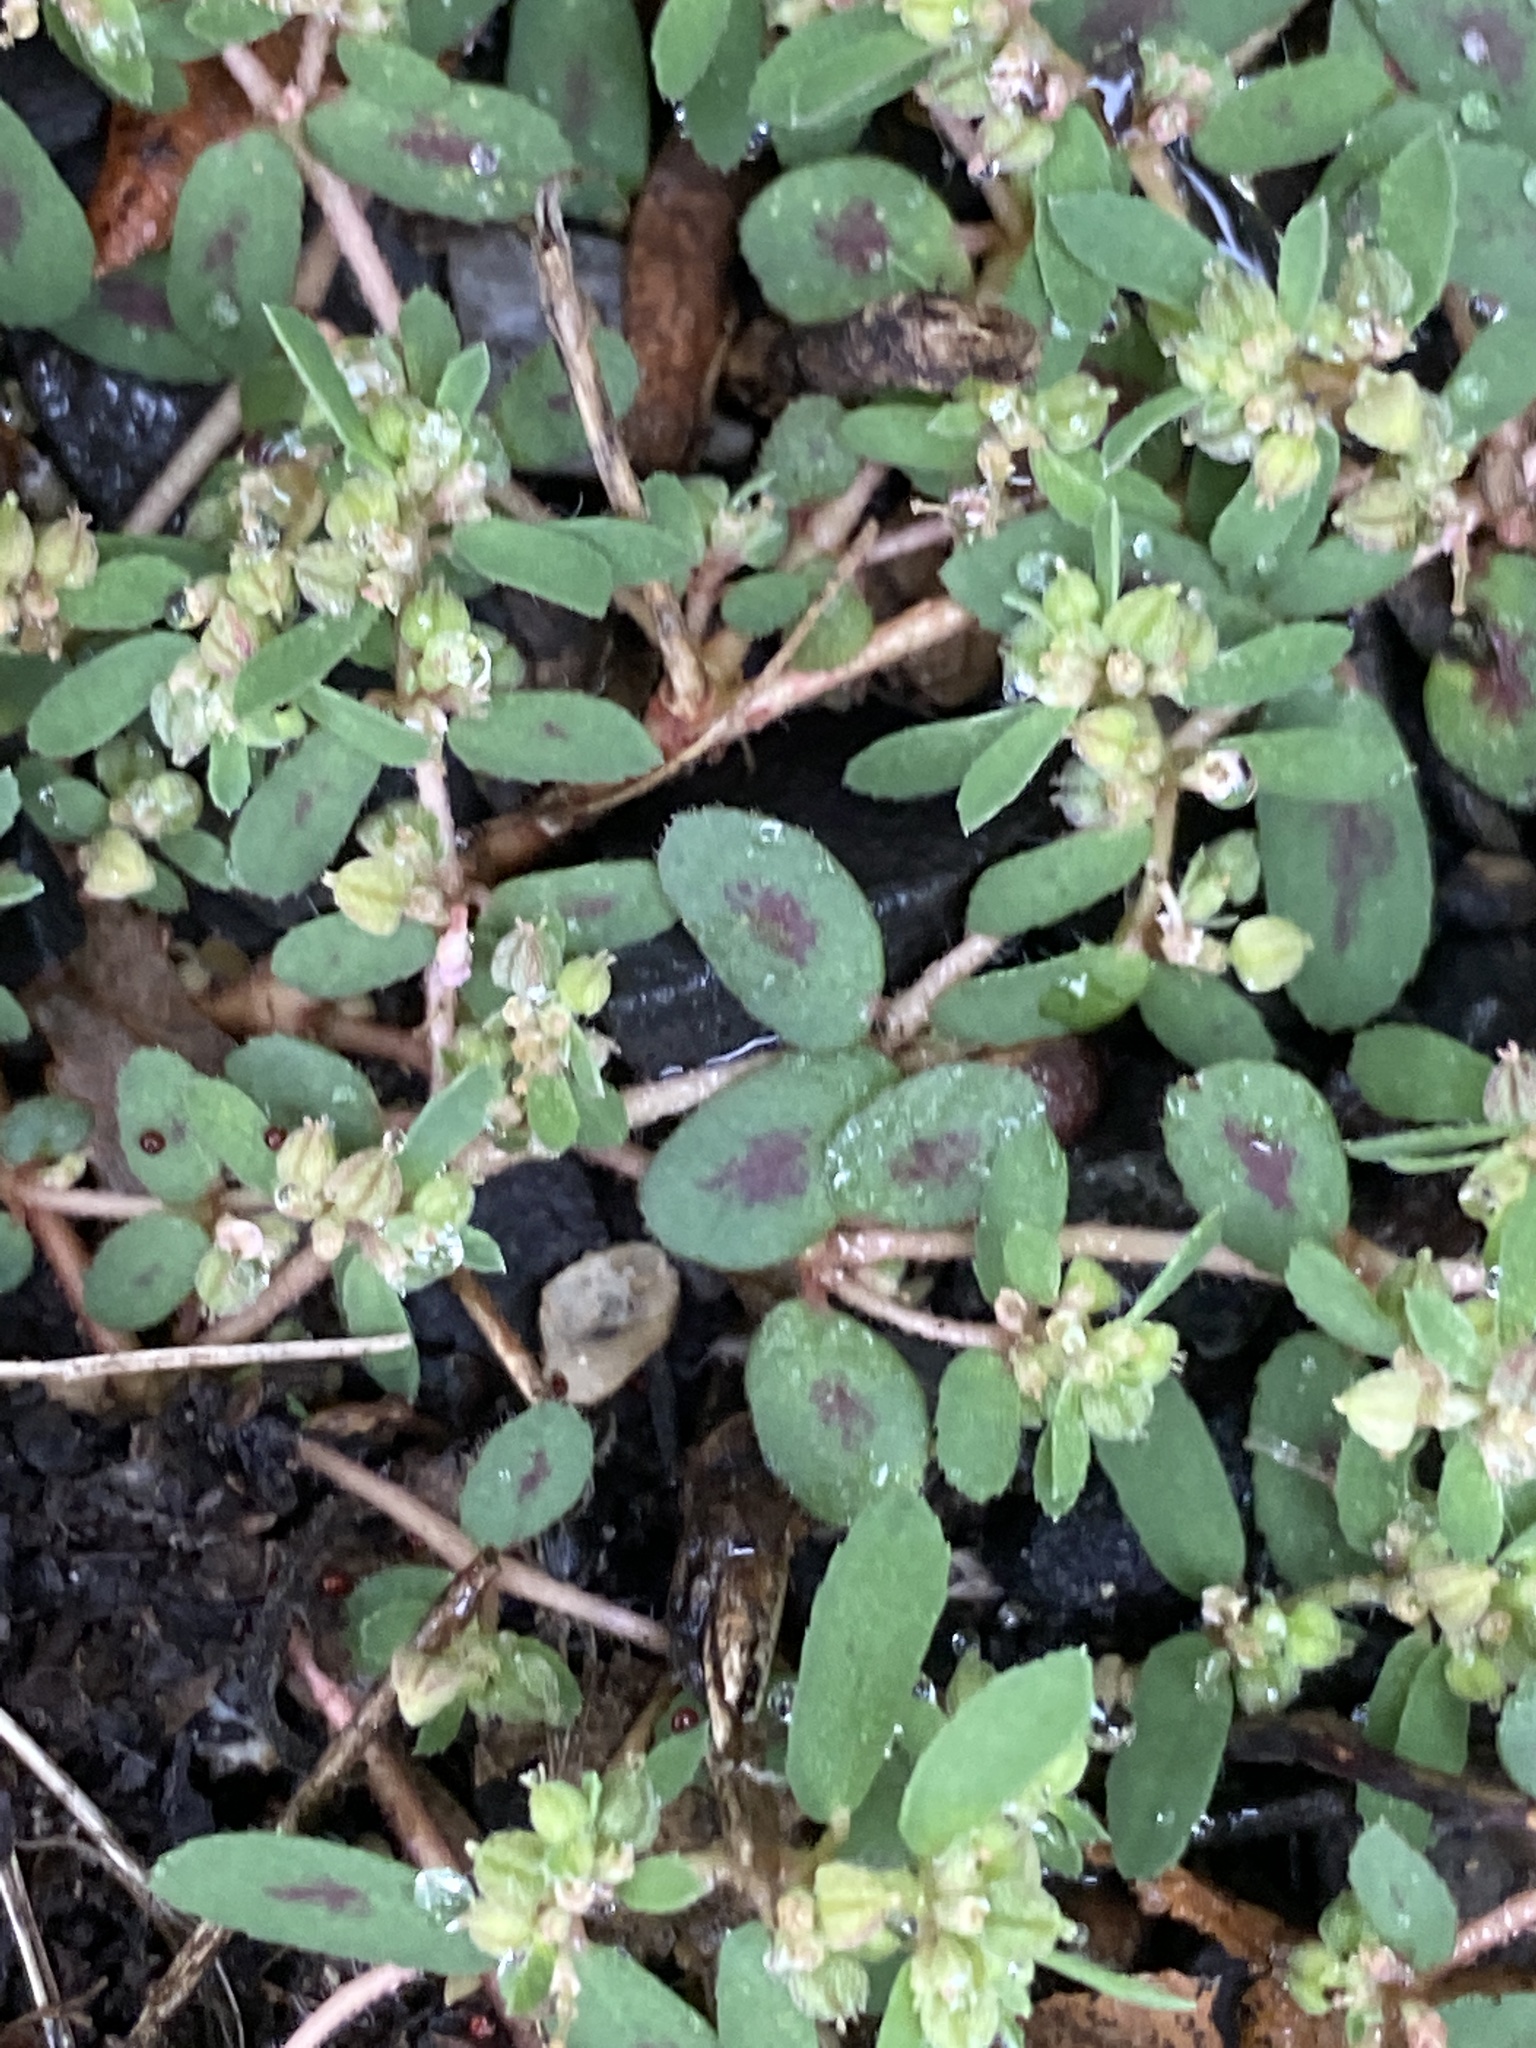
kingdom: Plantae
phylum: Tracheophyta
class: Magnoliopsida
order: Malpighiales
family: Euphorbiaceae
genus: Euphorbia
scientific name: Euphorbia maculata
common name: Spotted spurge
